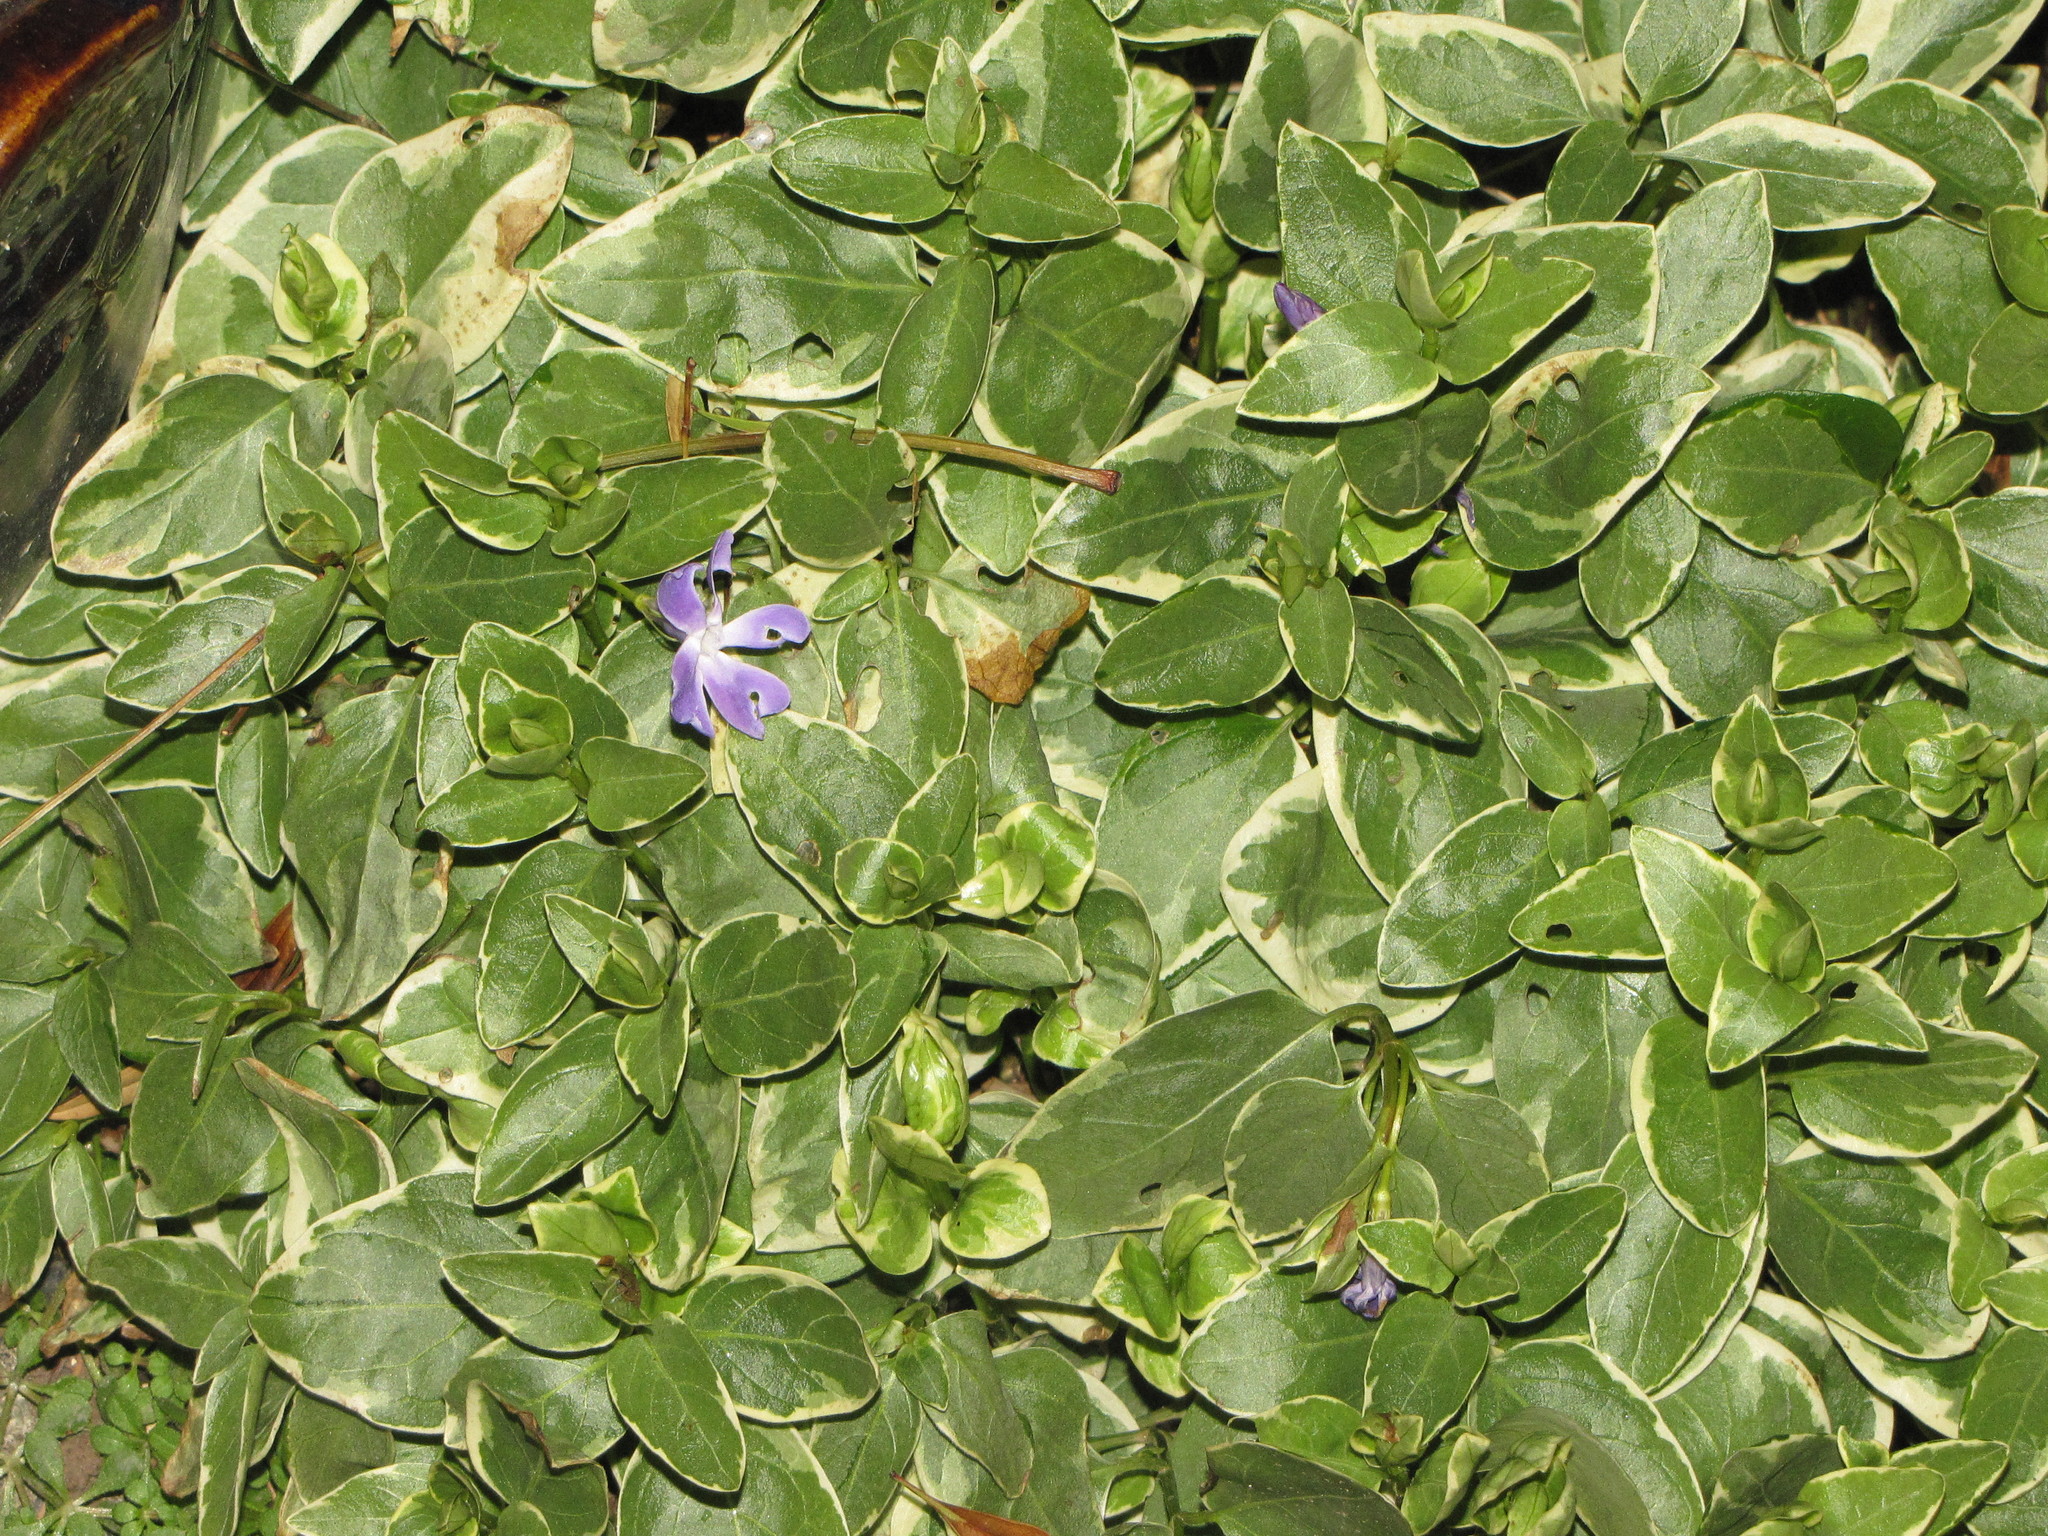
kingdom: Plantae
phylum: Tracheophyta
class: Magnoliopsida
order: Gentianales
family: Apocynaceae
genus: Vinca
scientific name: Vinca major
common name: Greater periwinkle
